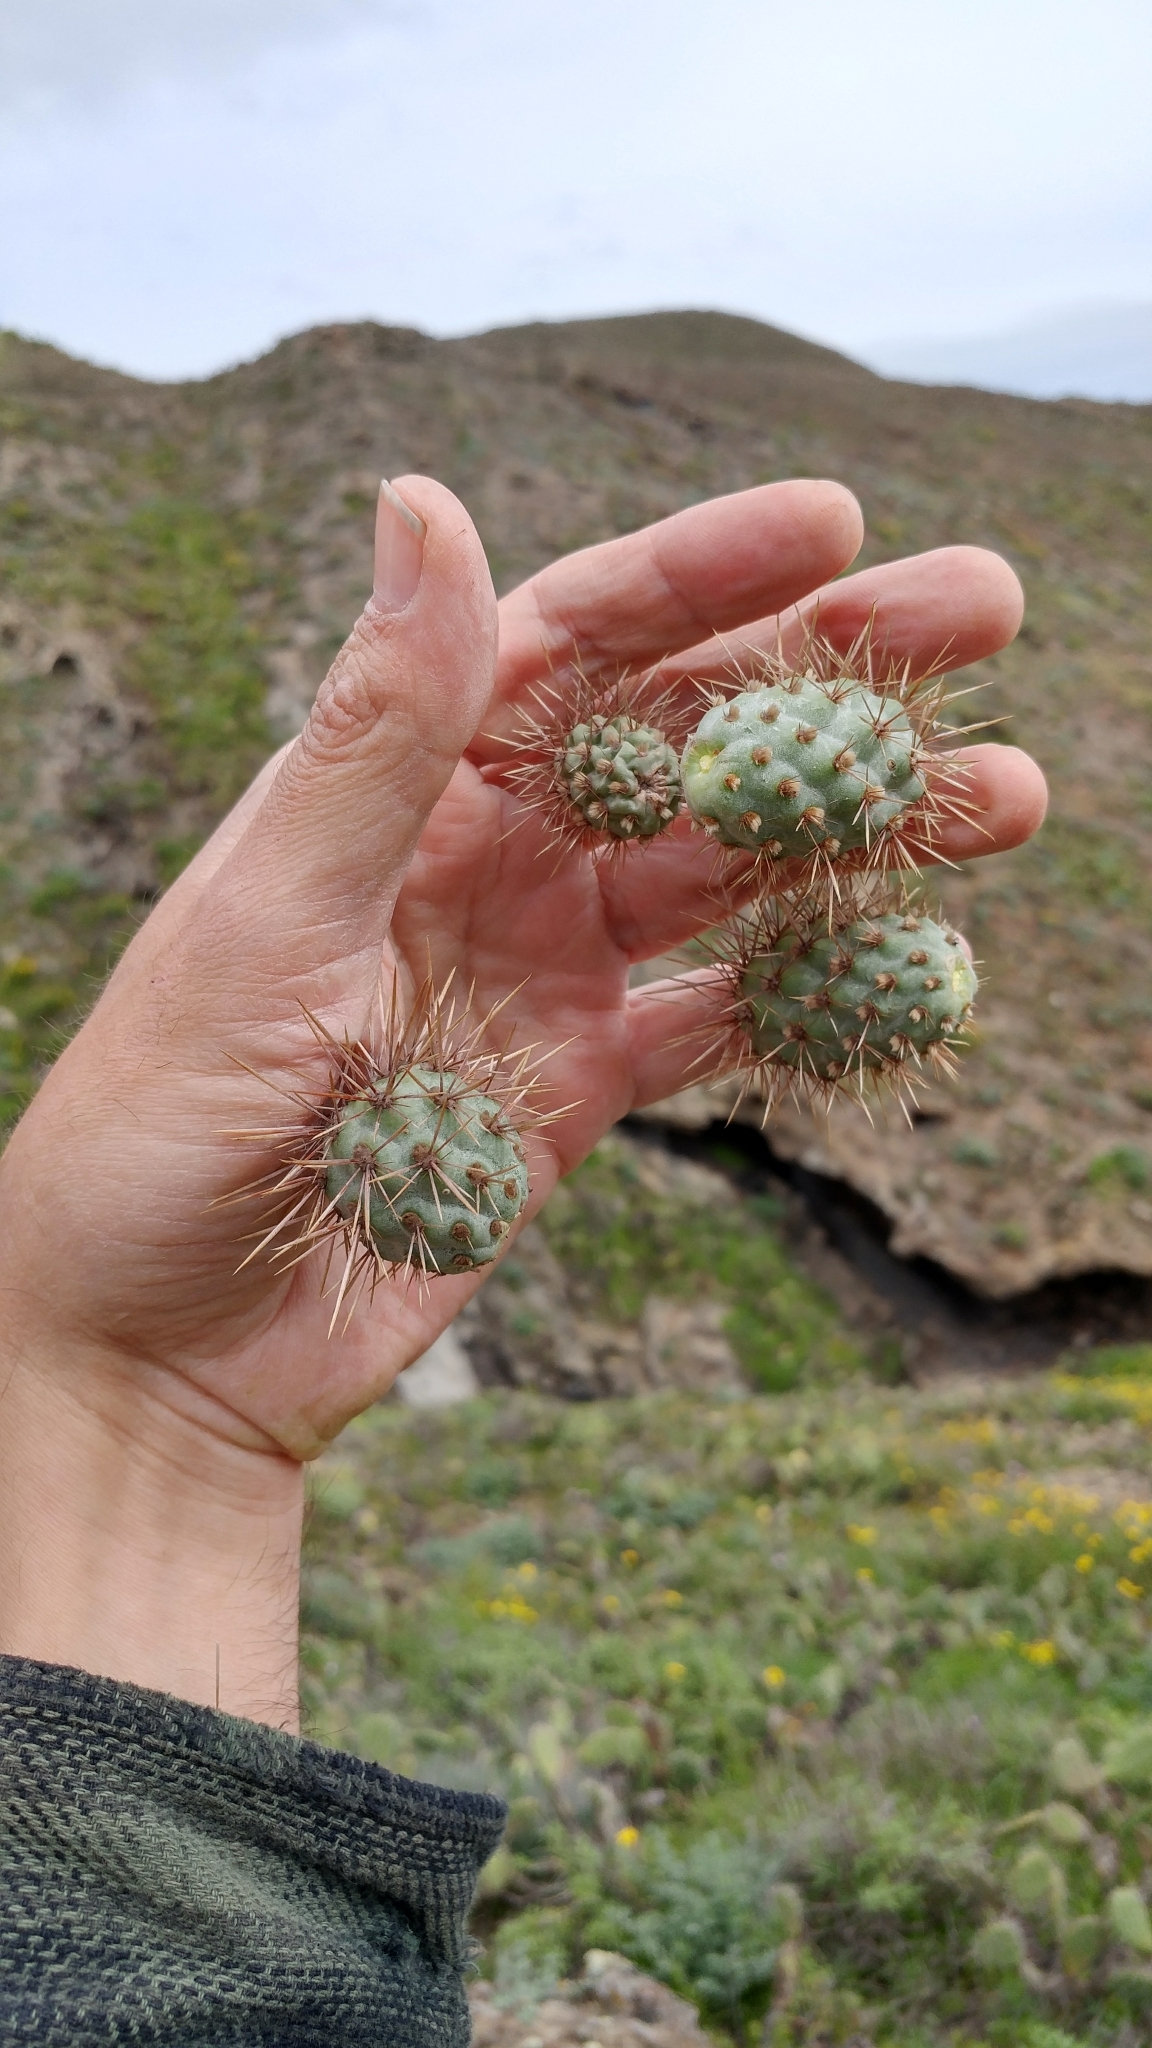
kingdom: Plantae
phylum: Tracheophyta
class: Magnoliopsida
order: Caryophyllales
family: Cactaceae
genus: Cylindropuntia
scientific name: Cylindropuntia prolifera
